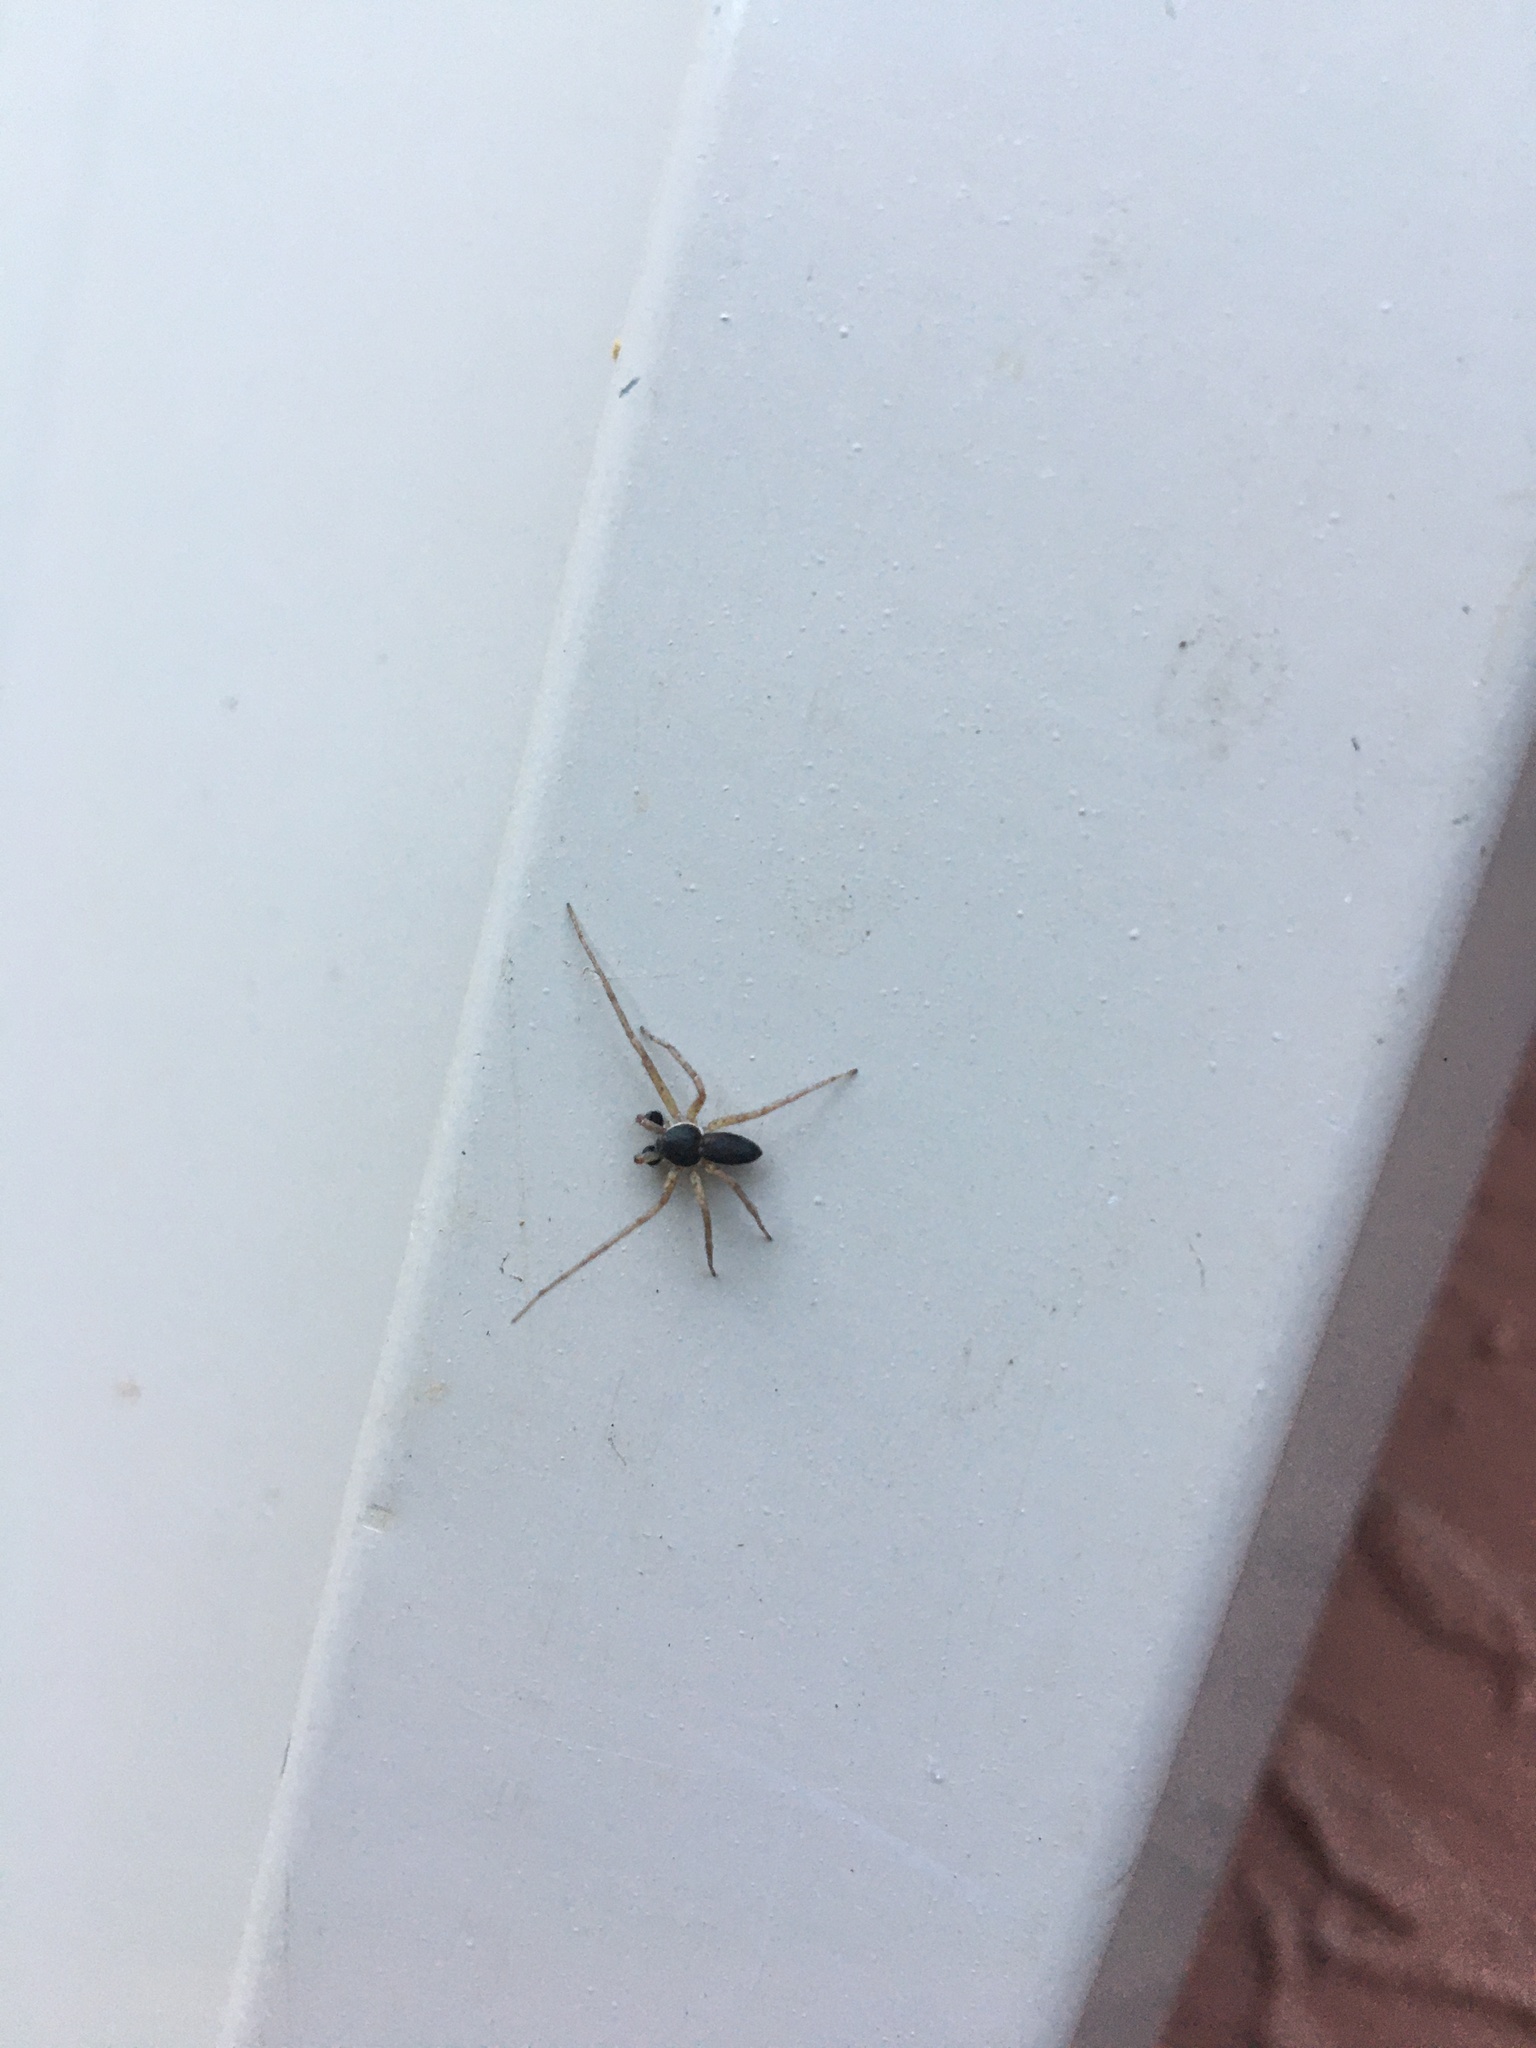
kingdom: Animalia
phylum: Arthropoda
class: Arachnida
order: Araneae
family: Philodromidae
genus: Philodromus
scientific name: Philodromus dispar
